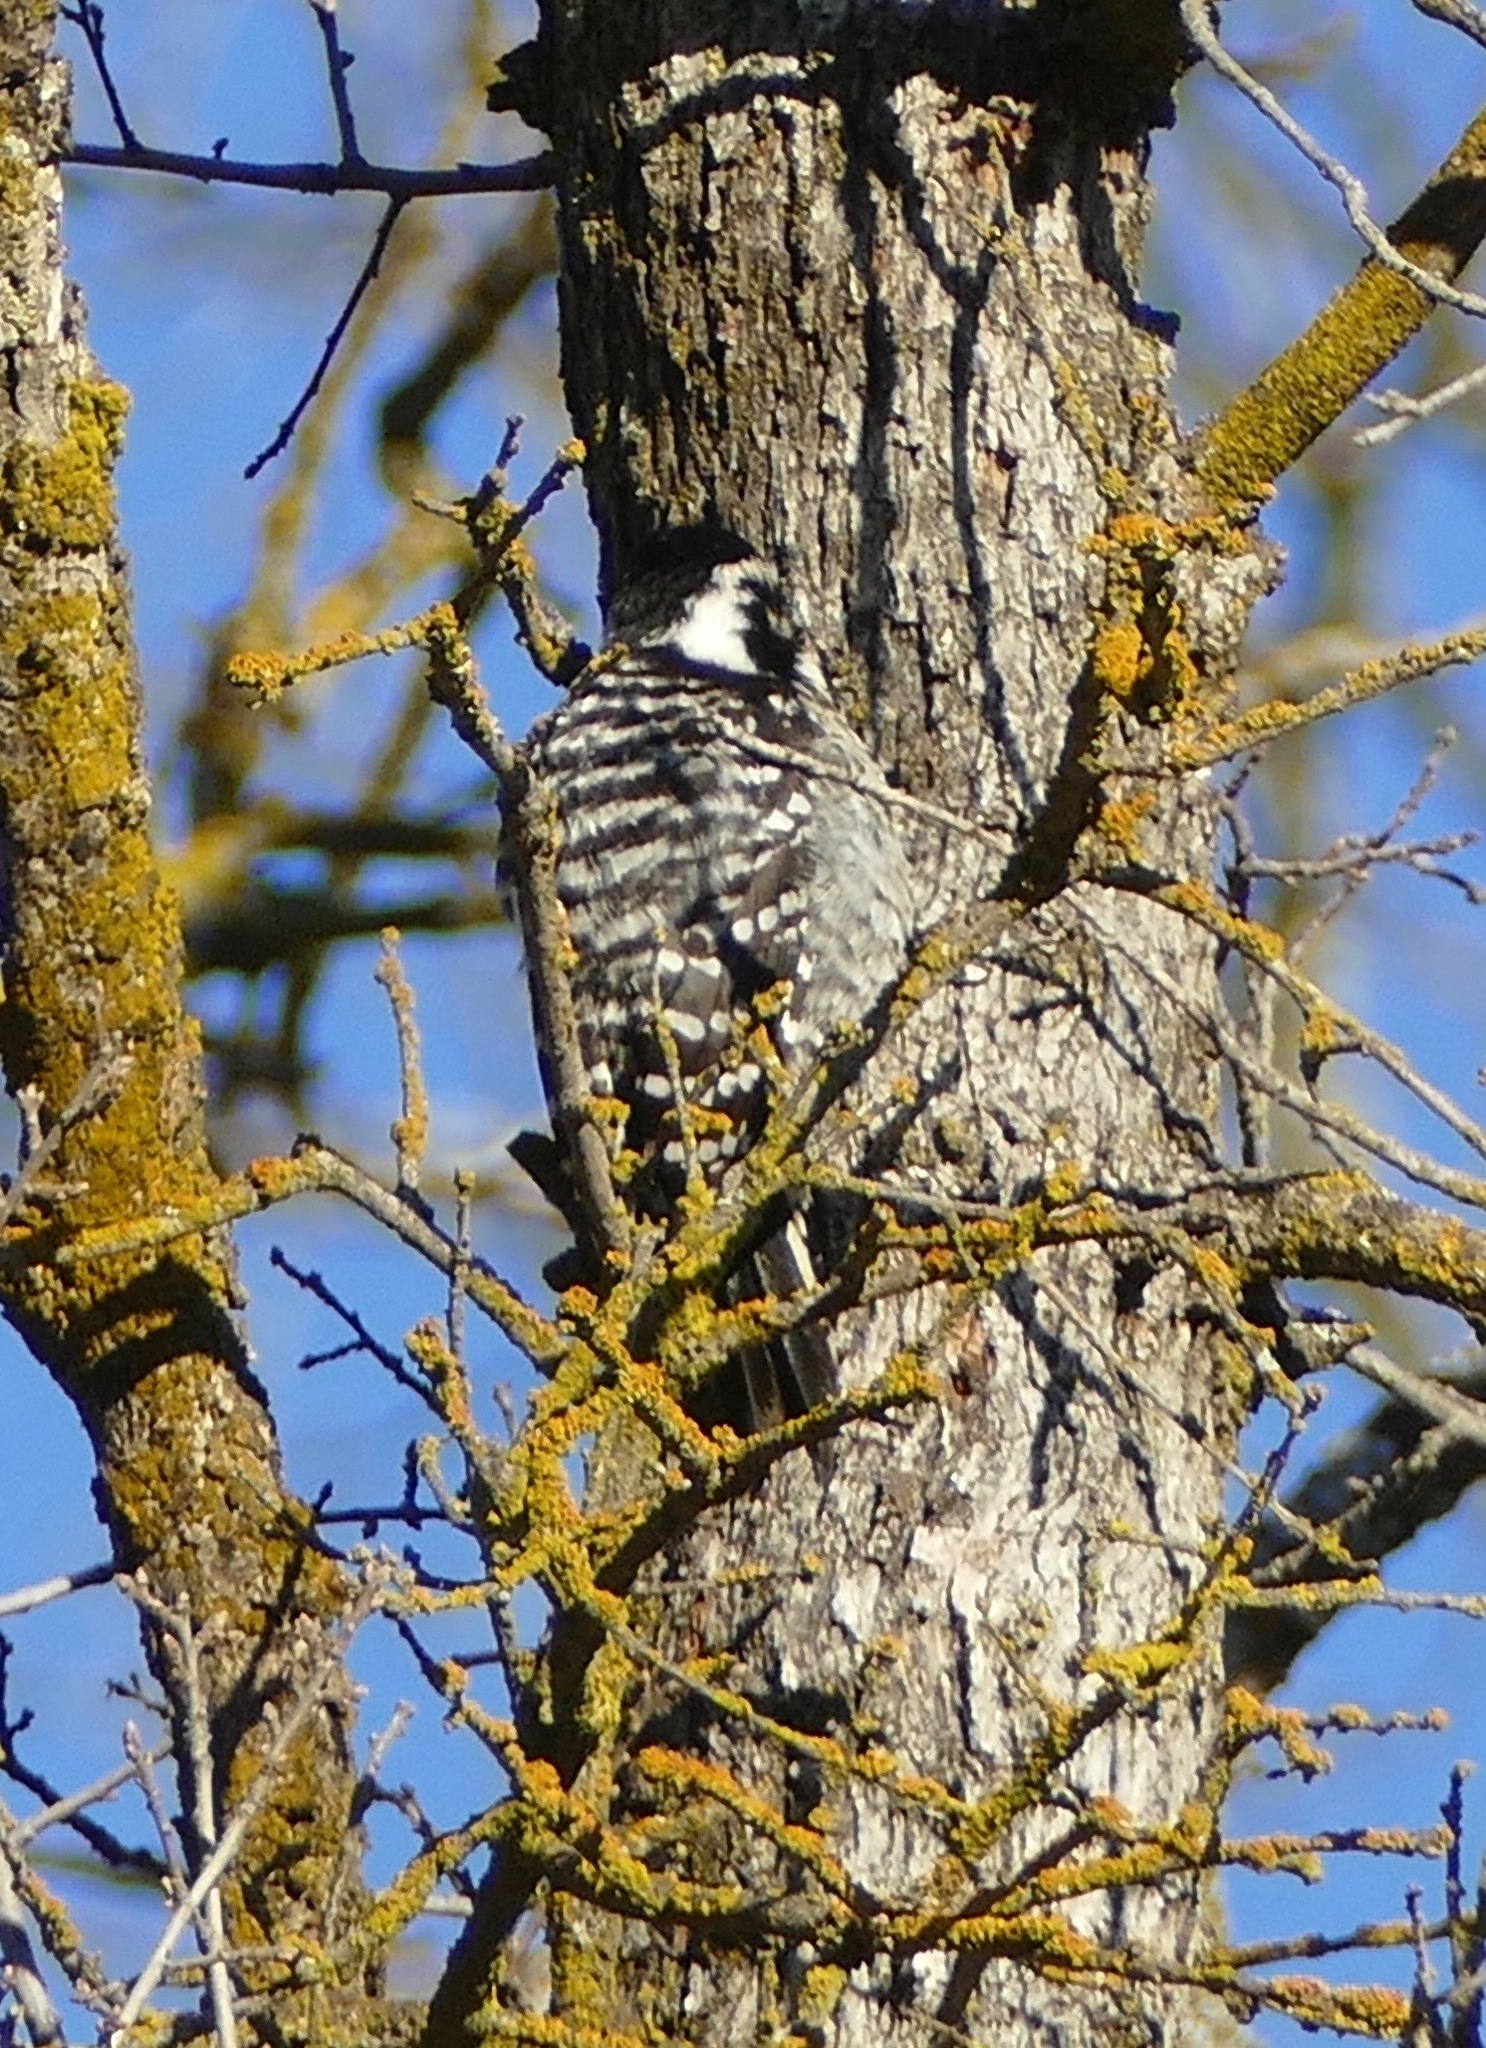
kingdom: Animalia
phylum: Chordata
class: Aves
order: Piciformes
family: Picidae
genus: Dryobates
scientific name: Dryobates nuttallii
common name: Nuttall's woodpecker
